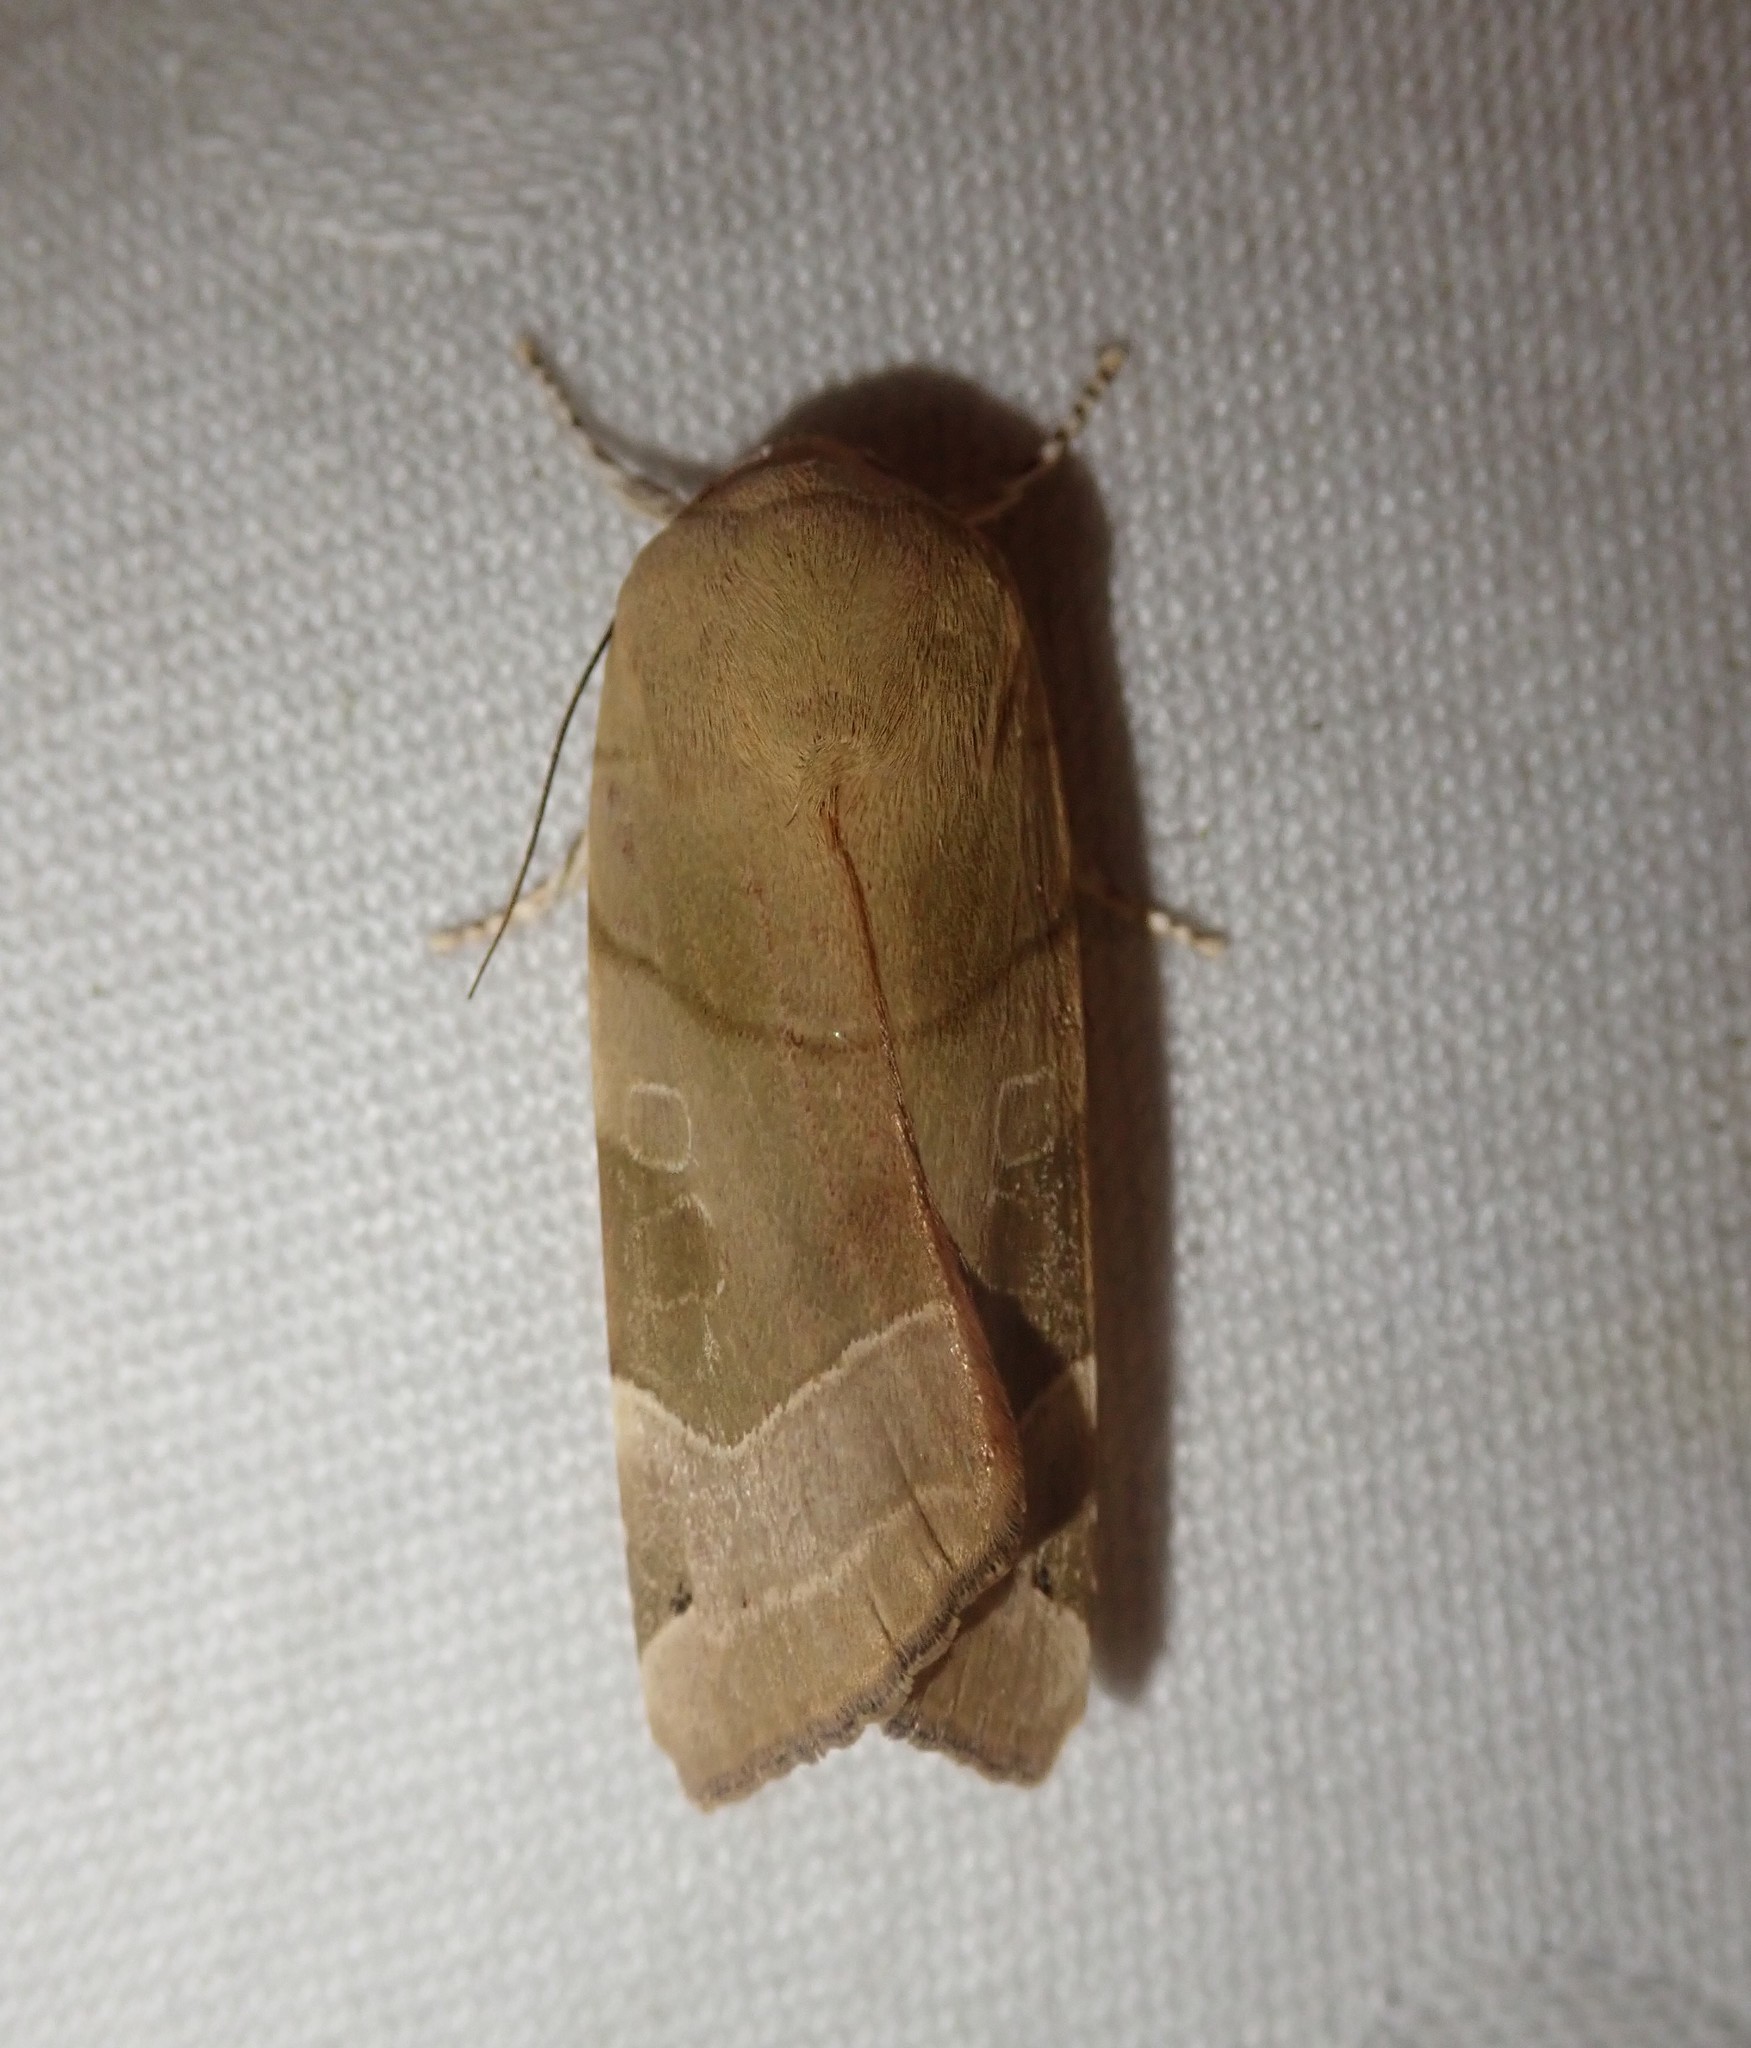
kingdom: Animalia
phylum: Arthropoda
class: Insecta
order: Lepidoptera
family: Noctuidae
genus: Noctua
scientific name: Noctua fimbriata
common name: Broad-bordered yellow underwing
